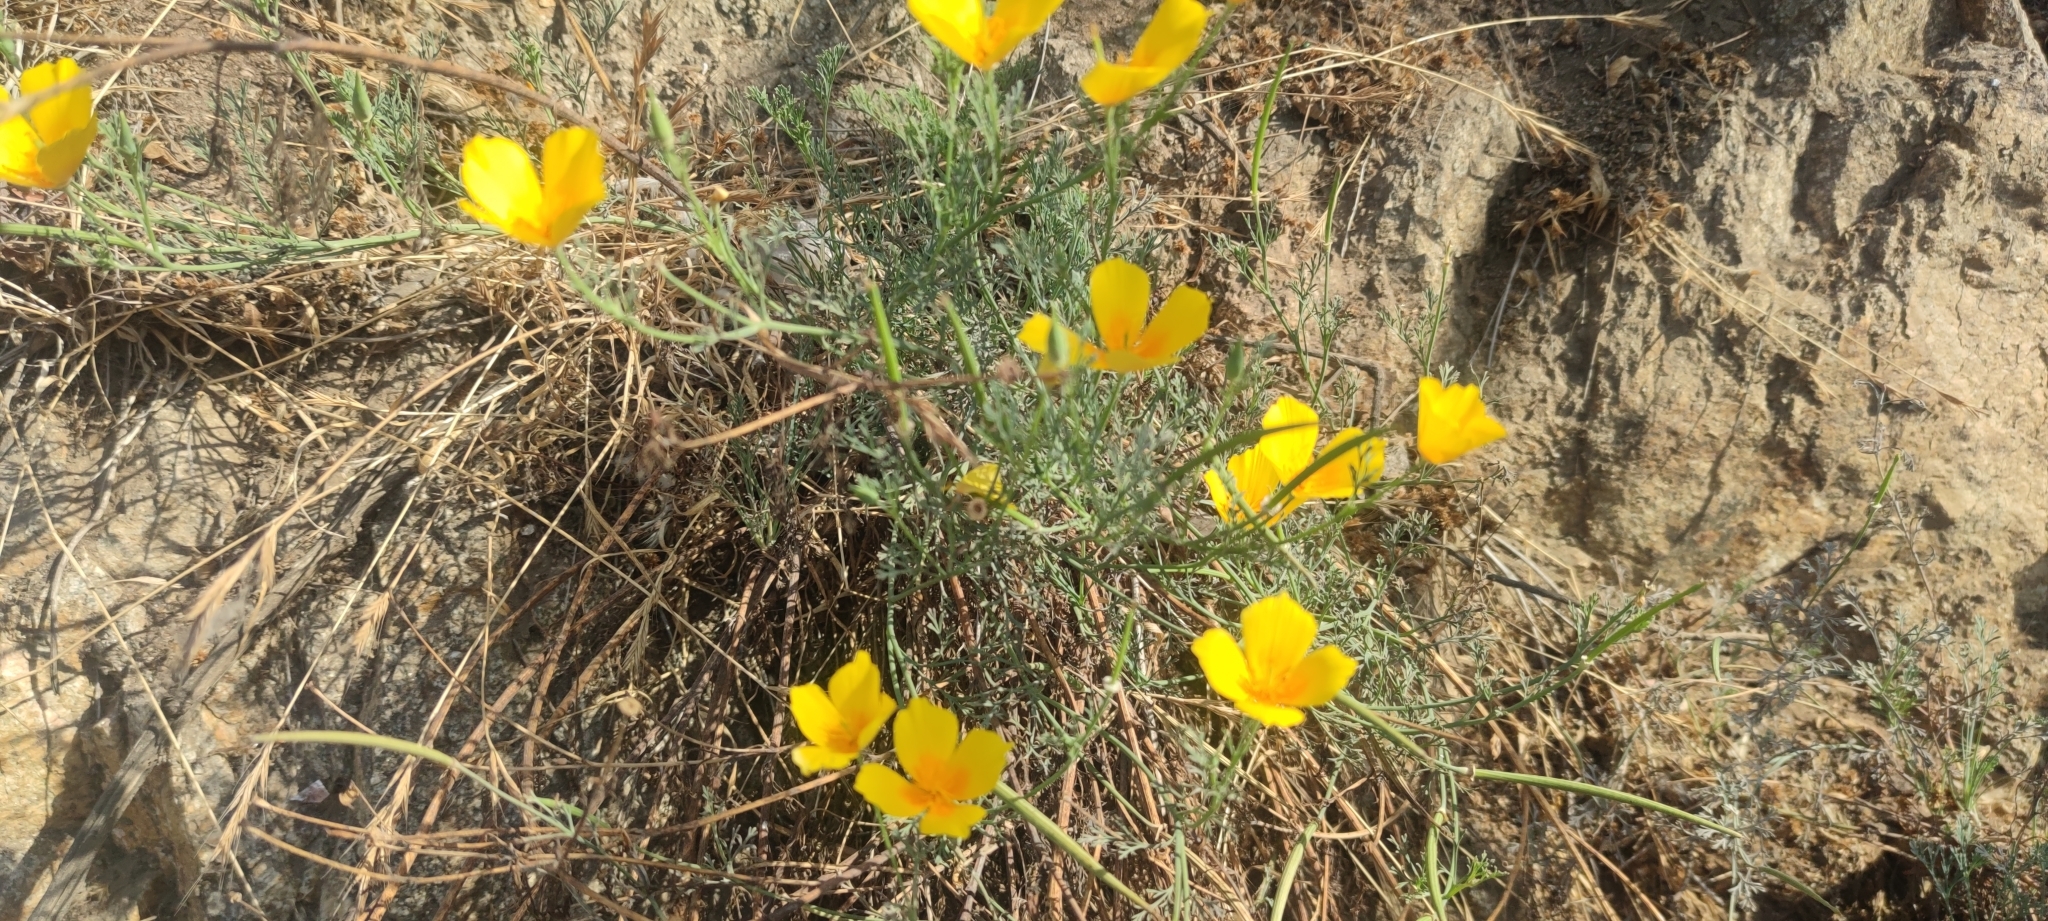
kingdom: Plantae
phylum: Tracheophyta
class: Magnoliopsida
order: Ranunculales
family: Papaveraceae
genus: Eschscholzia
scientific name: Eschscholzia californica
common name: California poppy
